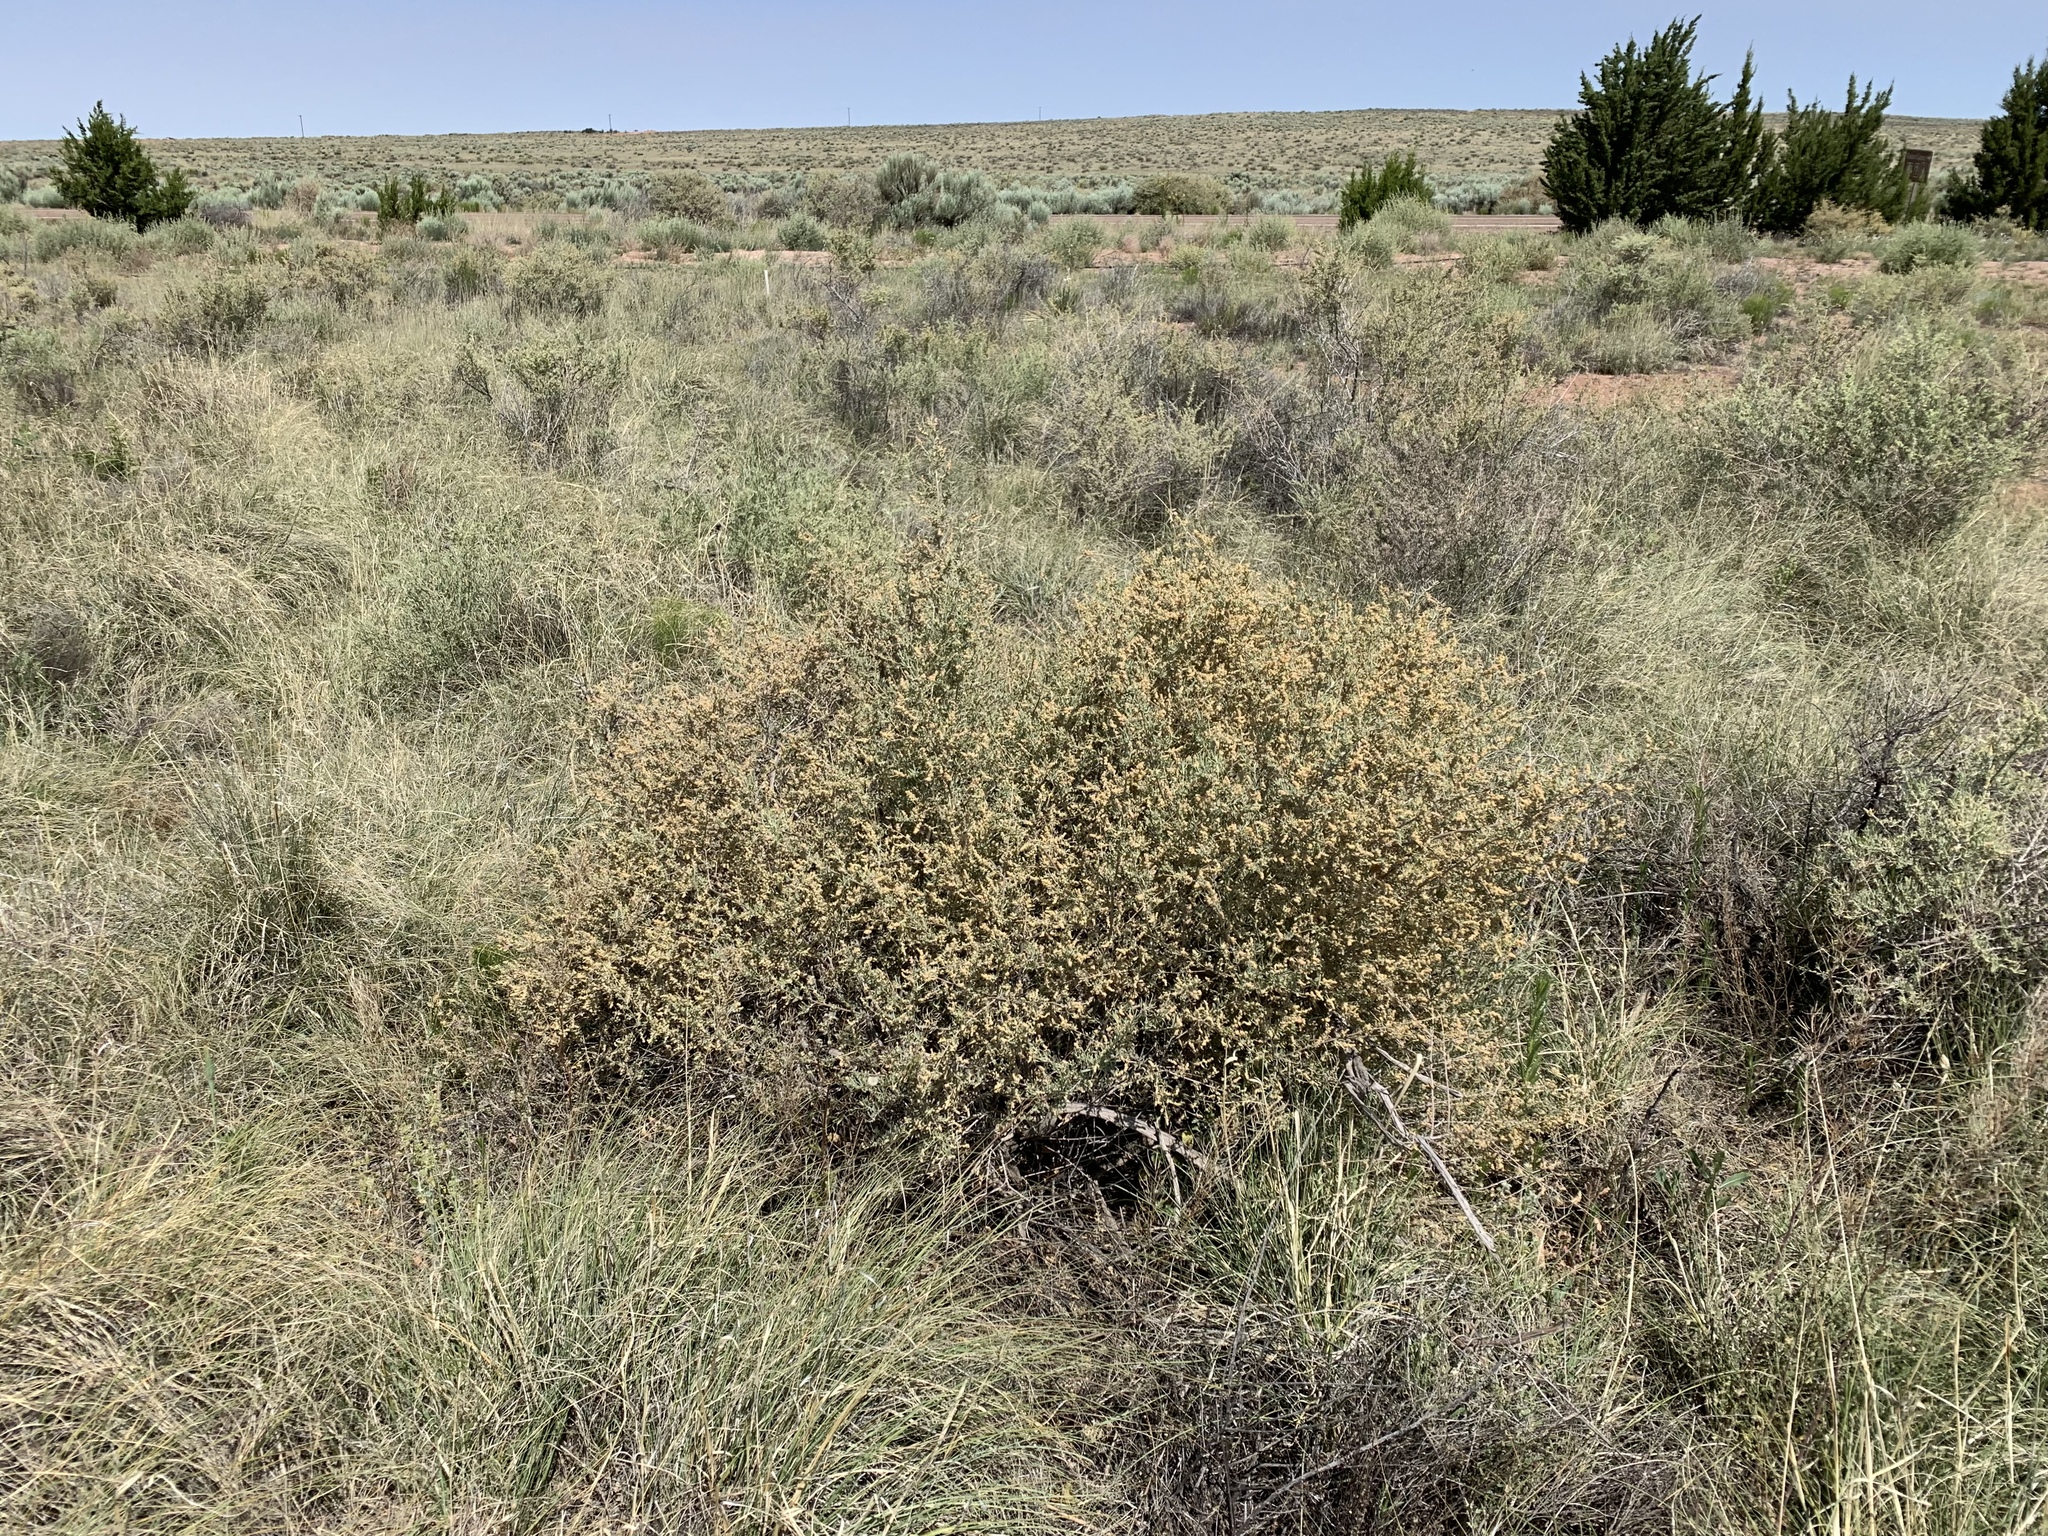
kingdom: Plantae
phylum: Tracheophyta
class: Magnoliopsida
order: Caryophyllales
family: Amaranthaceae
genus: Atriplex
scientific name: Atriplex canescens
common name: Four-wing saltbush
